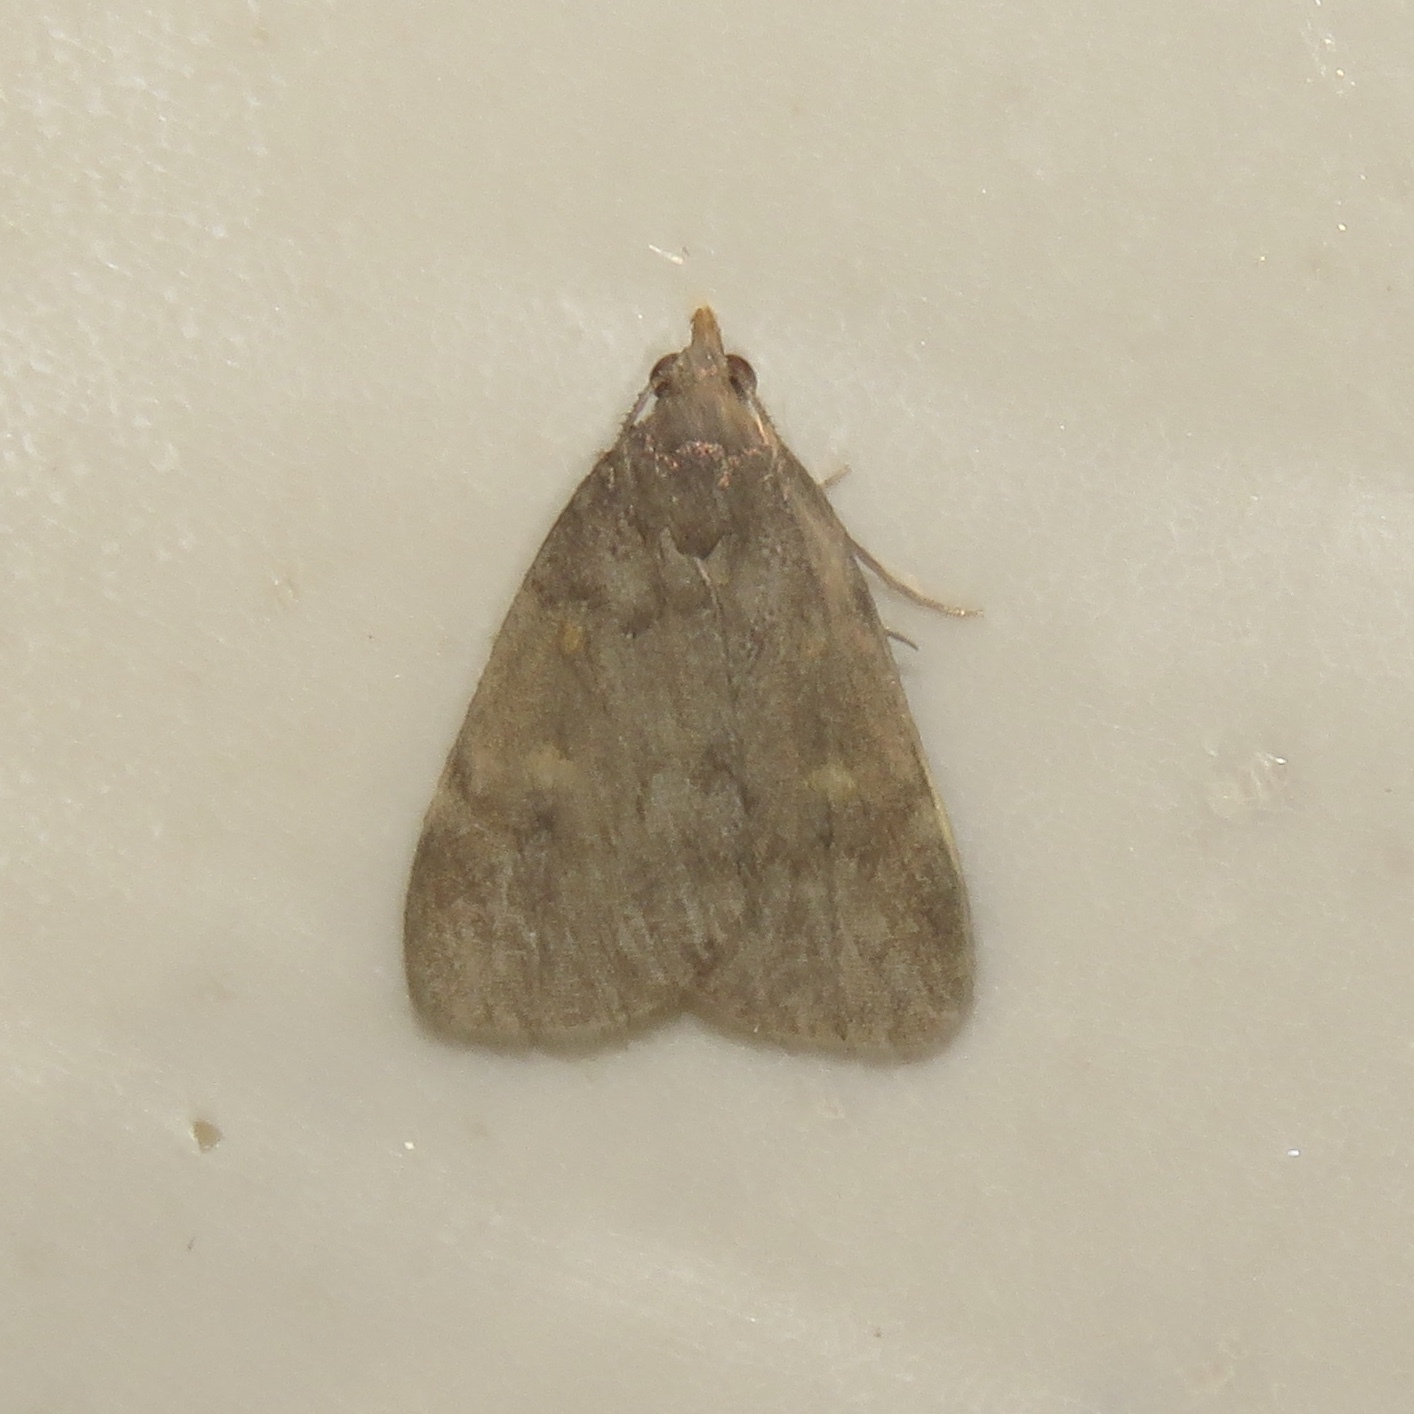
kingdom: Animalia
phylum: Arthropoda
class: Insecta
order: Lepidoptera
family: Erebidae
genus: Idia
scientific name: Idia diminuendis
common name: Orange-spotted idia moth
